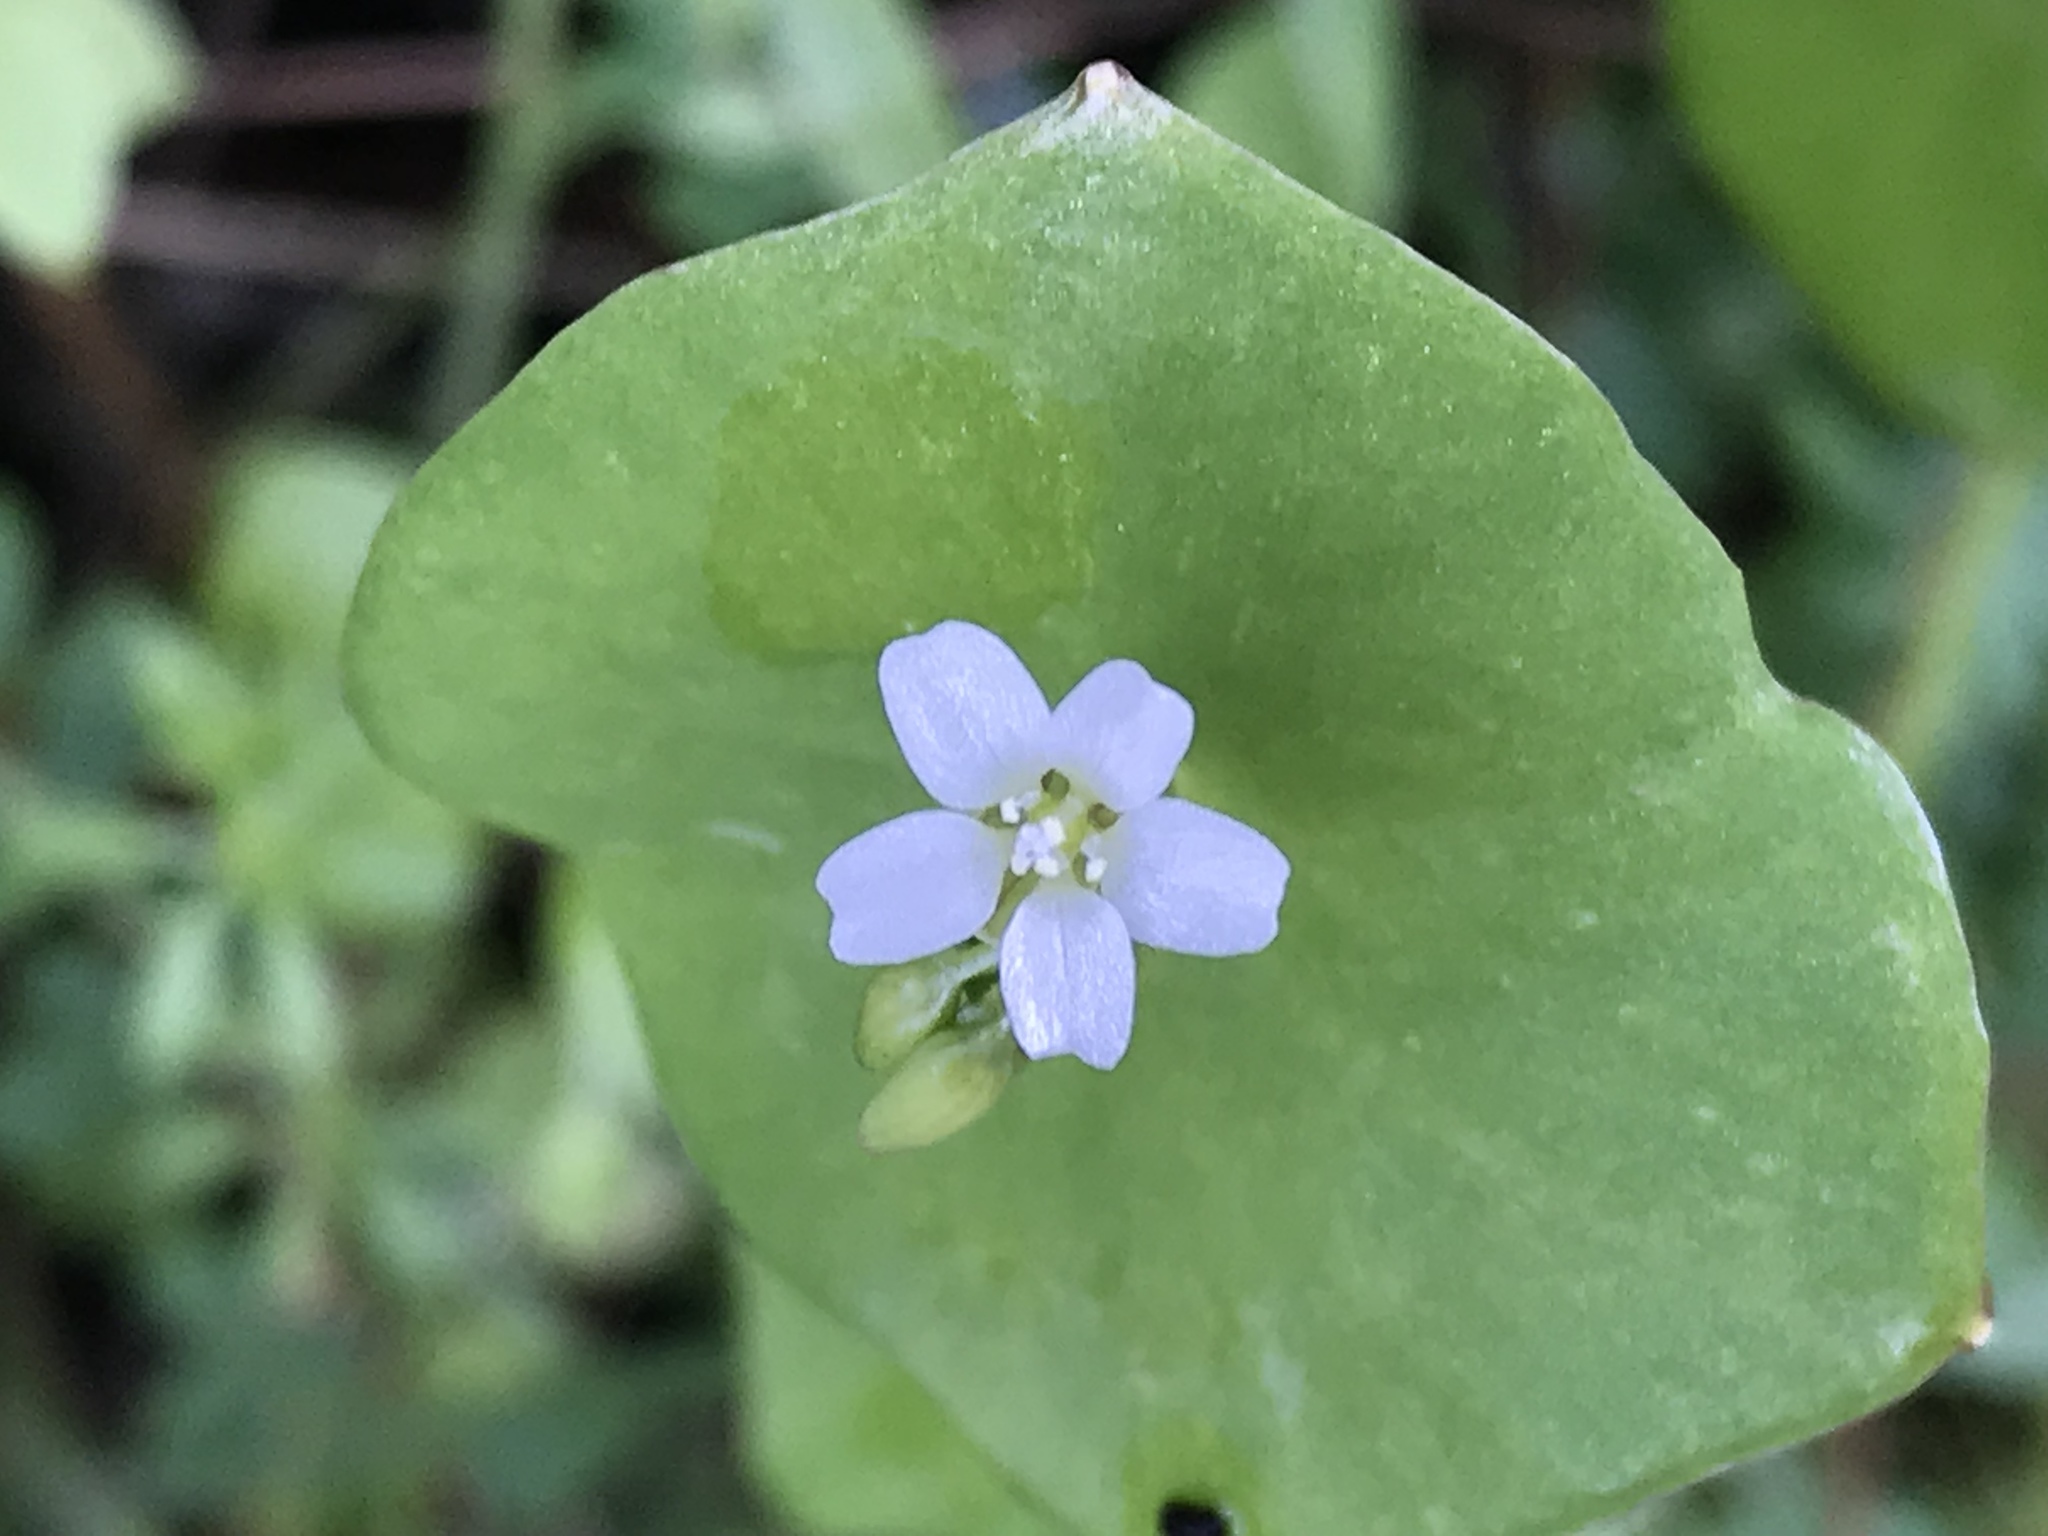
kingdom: Plantae
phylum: Tracheophyta
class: Magnoliopsida
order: Caryophyllales
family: Montiaceae
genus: Claytonia
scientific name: Claytonia perfoliata
